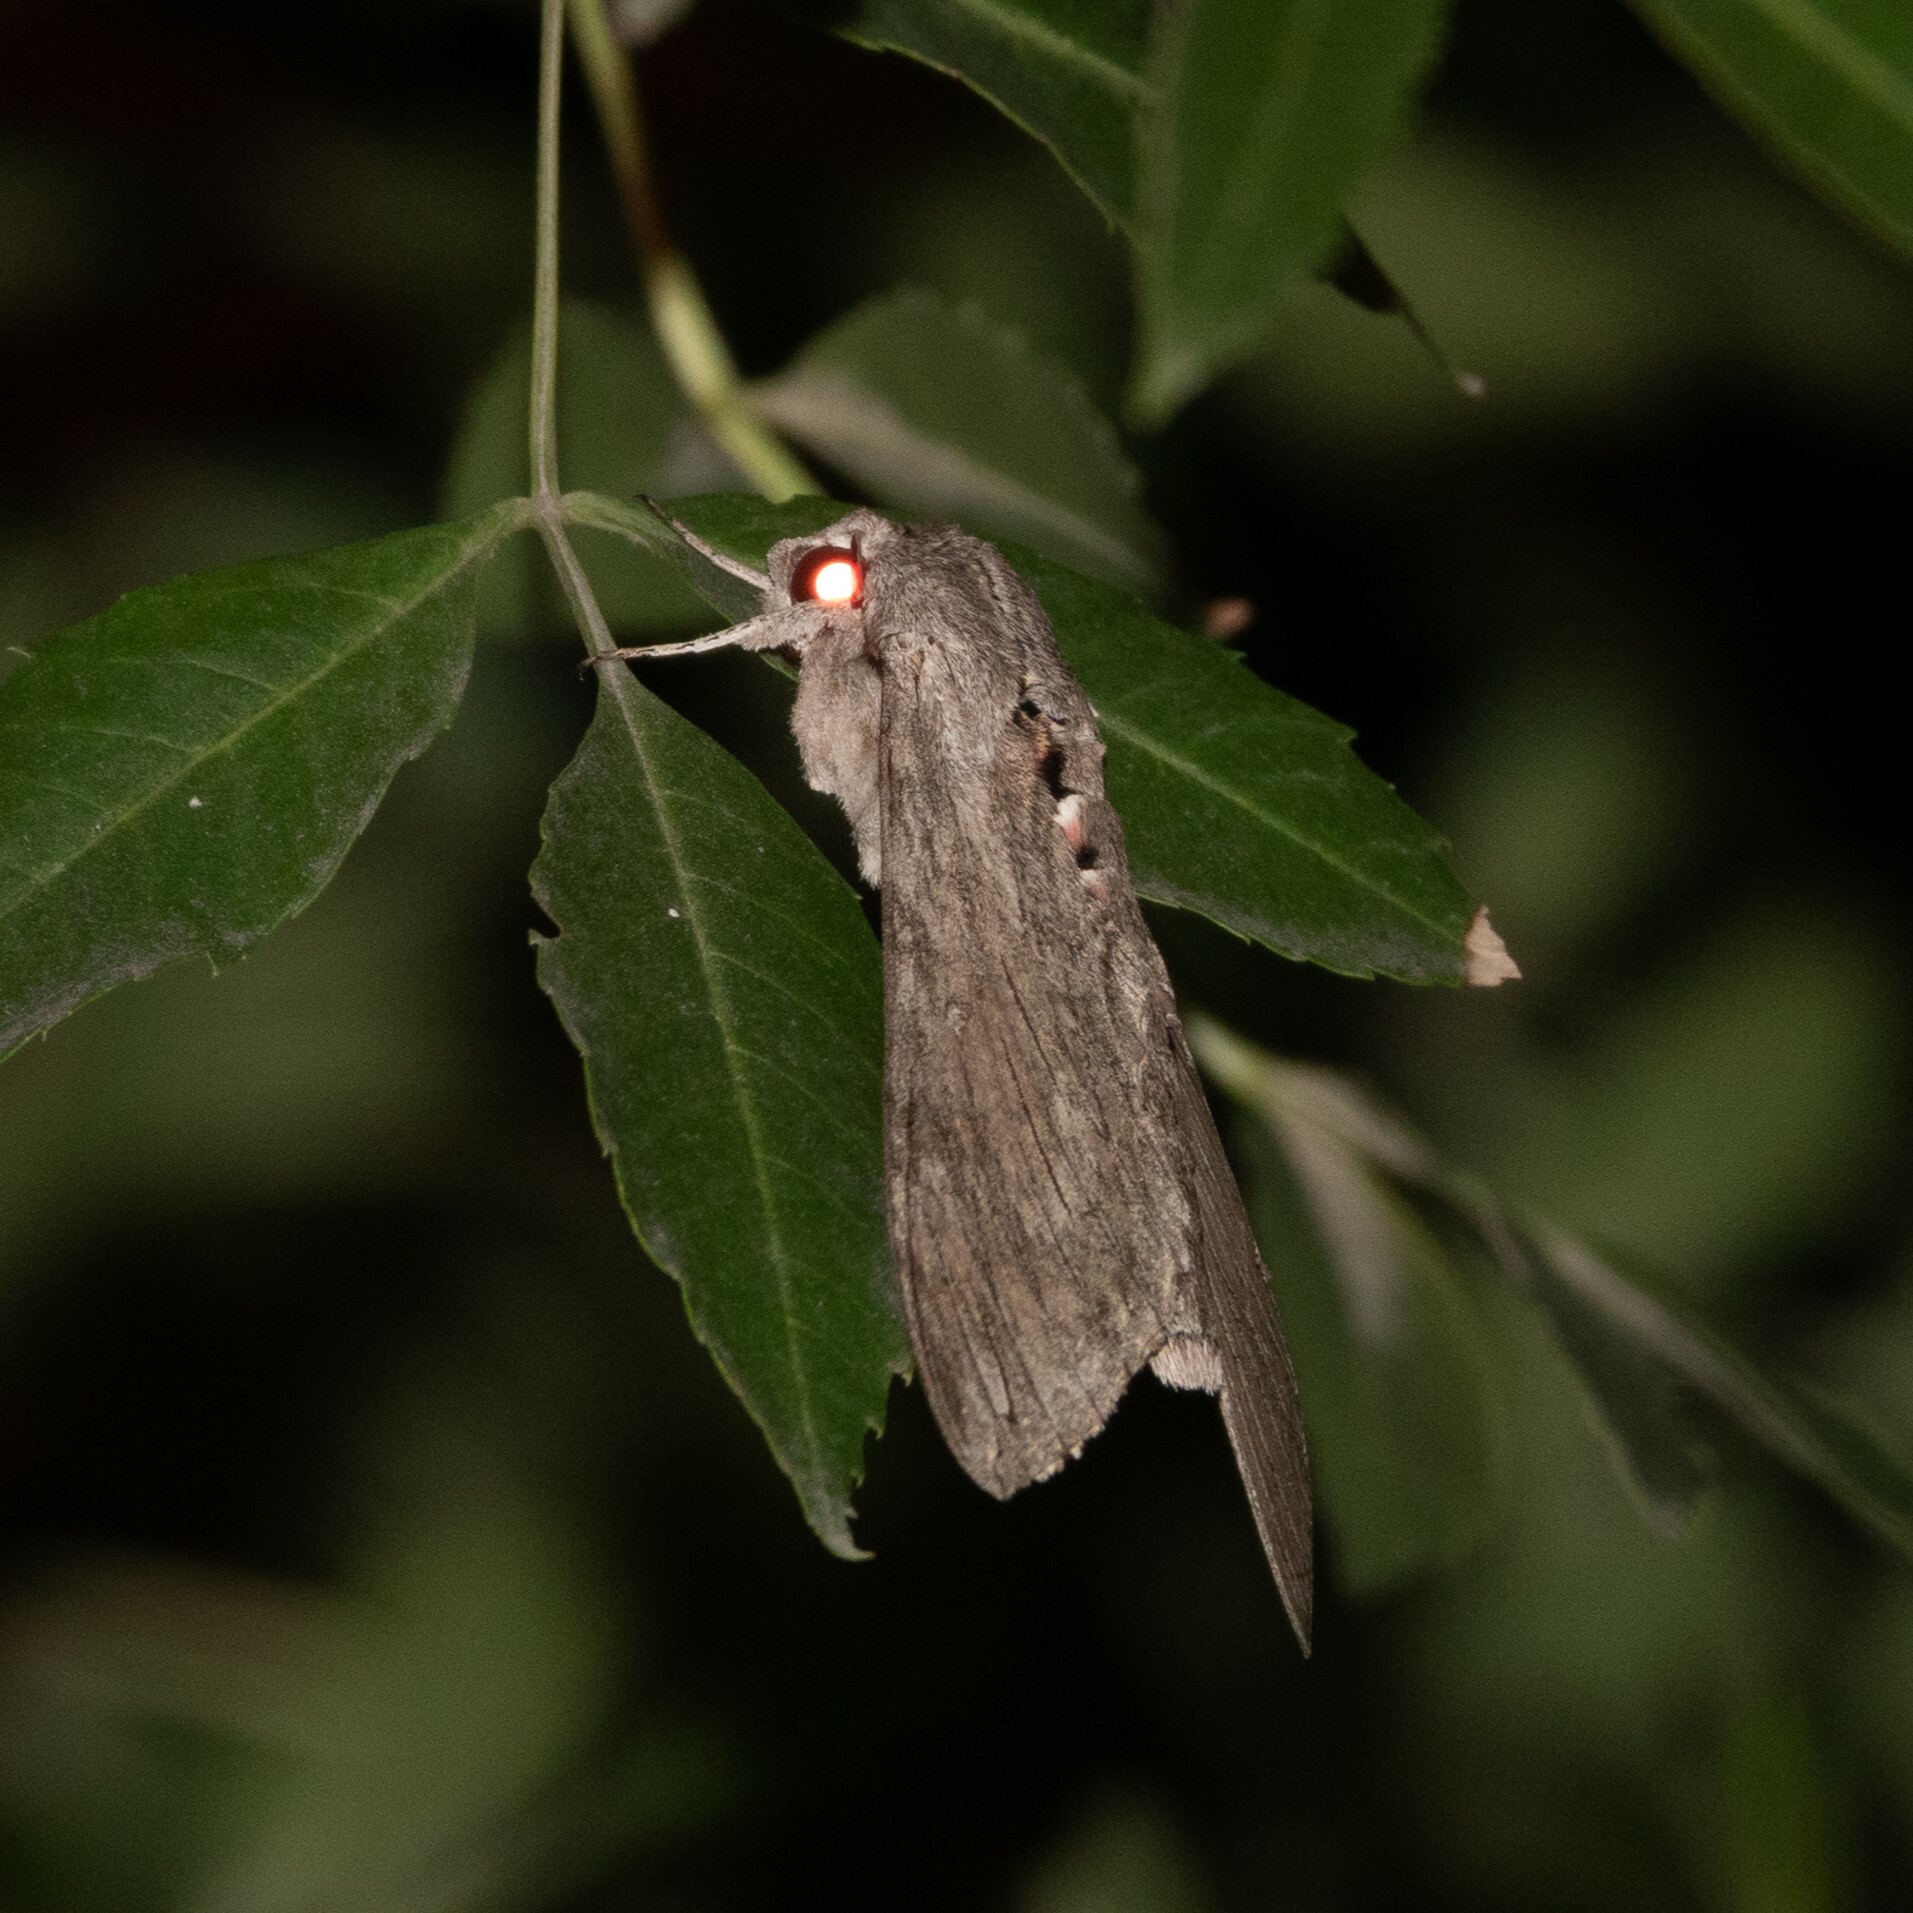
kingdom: Animalia
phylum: Arthropoda
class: Insecta
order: Lepidoptera
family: Sphingidae
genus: Agrius
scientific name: Agrius convolvuli
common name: Convolvulus hawkmoth
